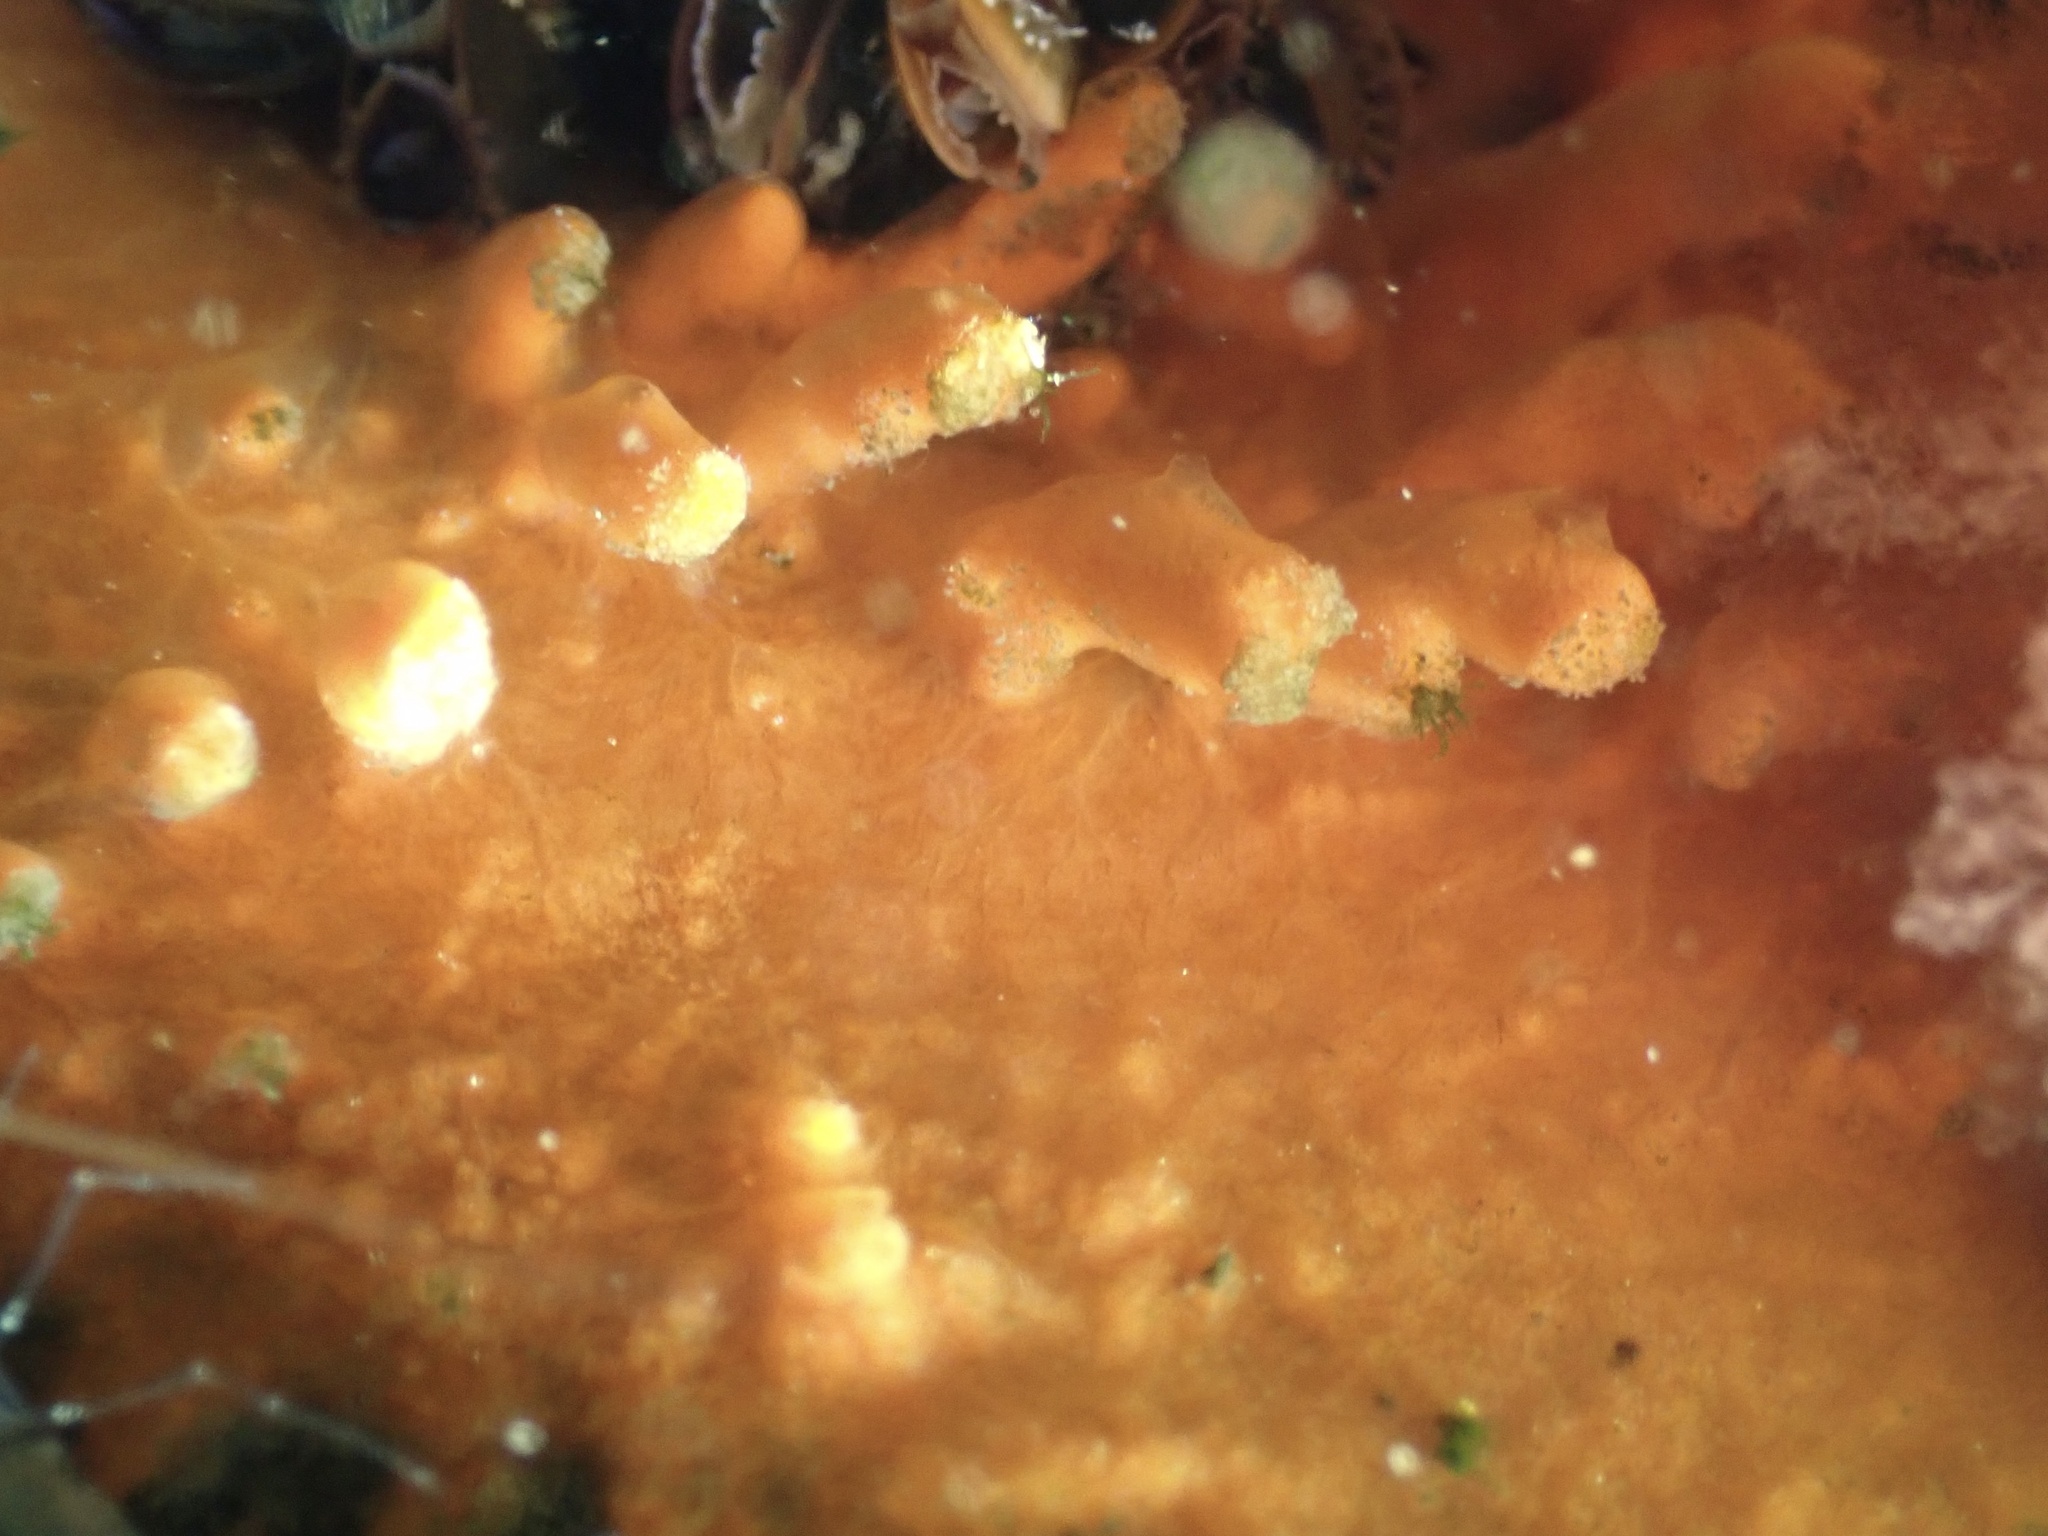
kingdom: Animalia
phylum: Porifera
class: Demospongiae
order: Poecilosclerida
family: Microcionidae
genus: Clathria
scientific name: Clathria prolifera
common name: Red beard sponge
